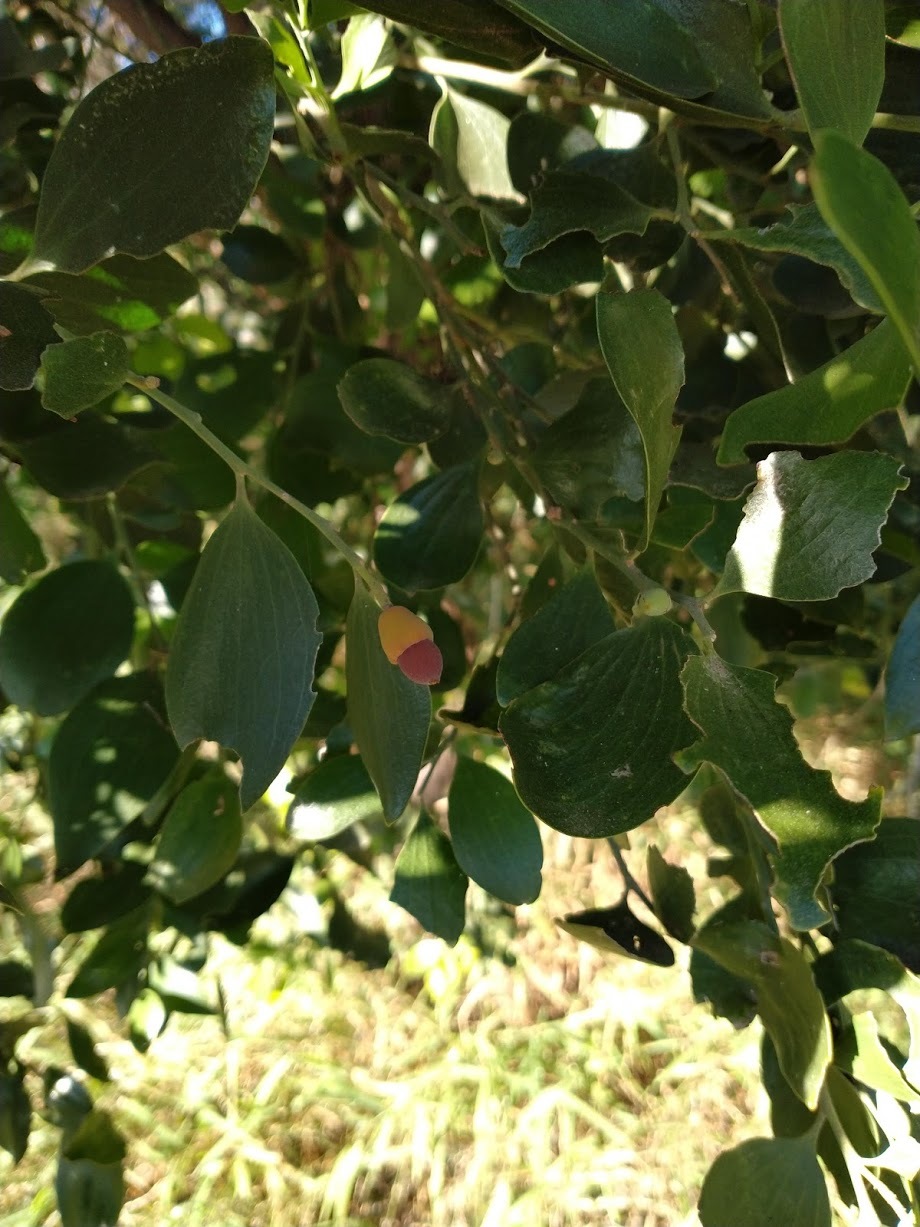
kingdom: Plantae
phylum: Tracheophyta
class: Magnoliopsida
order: Santalales
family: Santalaceae
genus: Exocarpos
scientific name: Exocarpos latifolius
